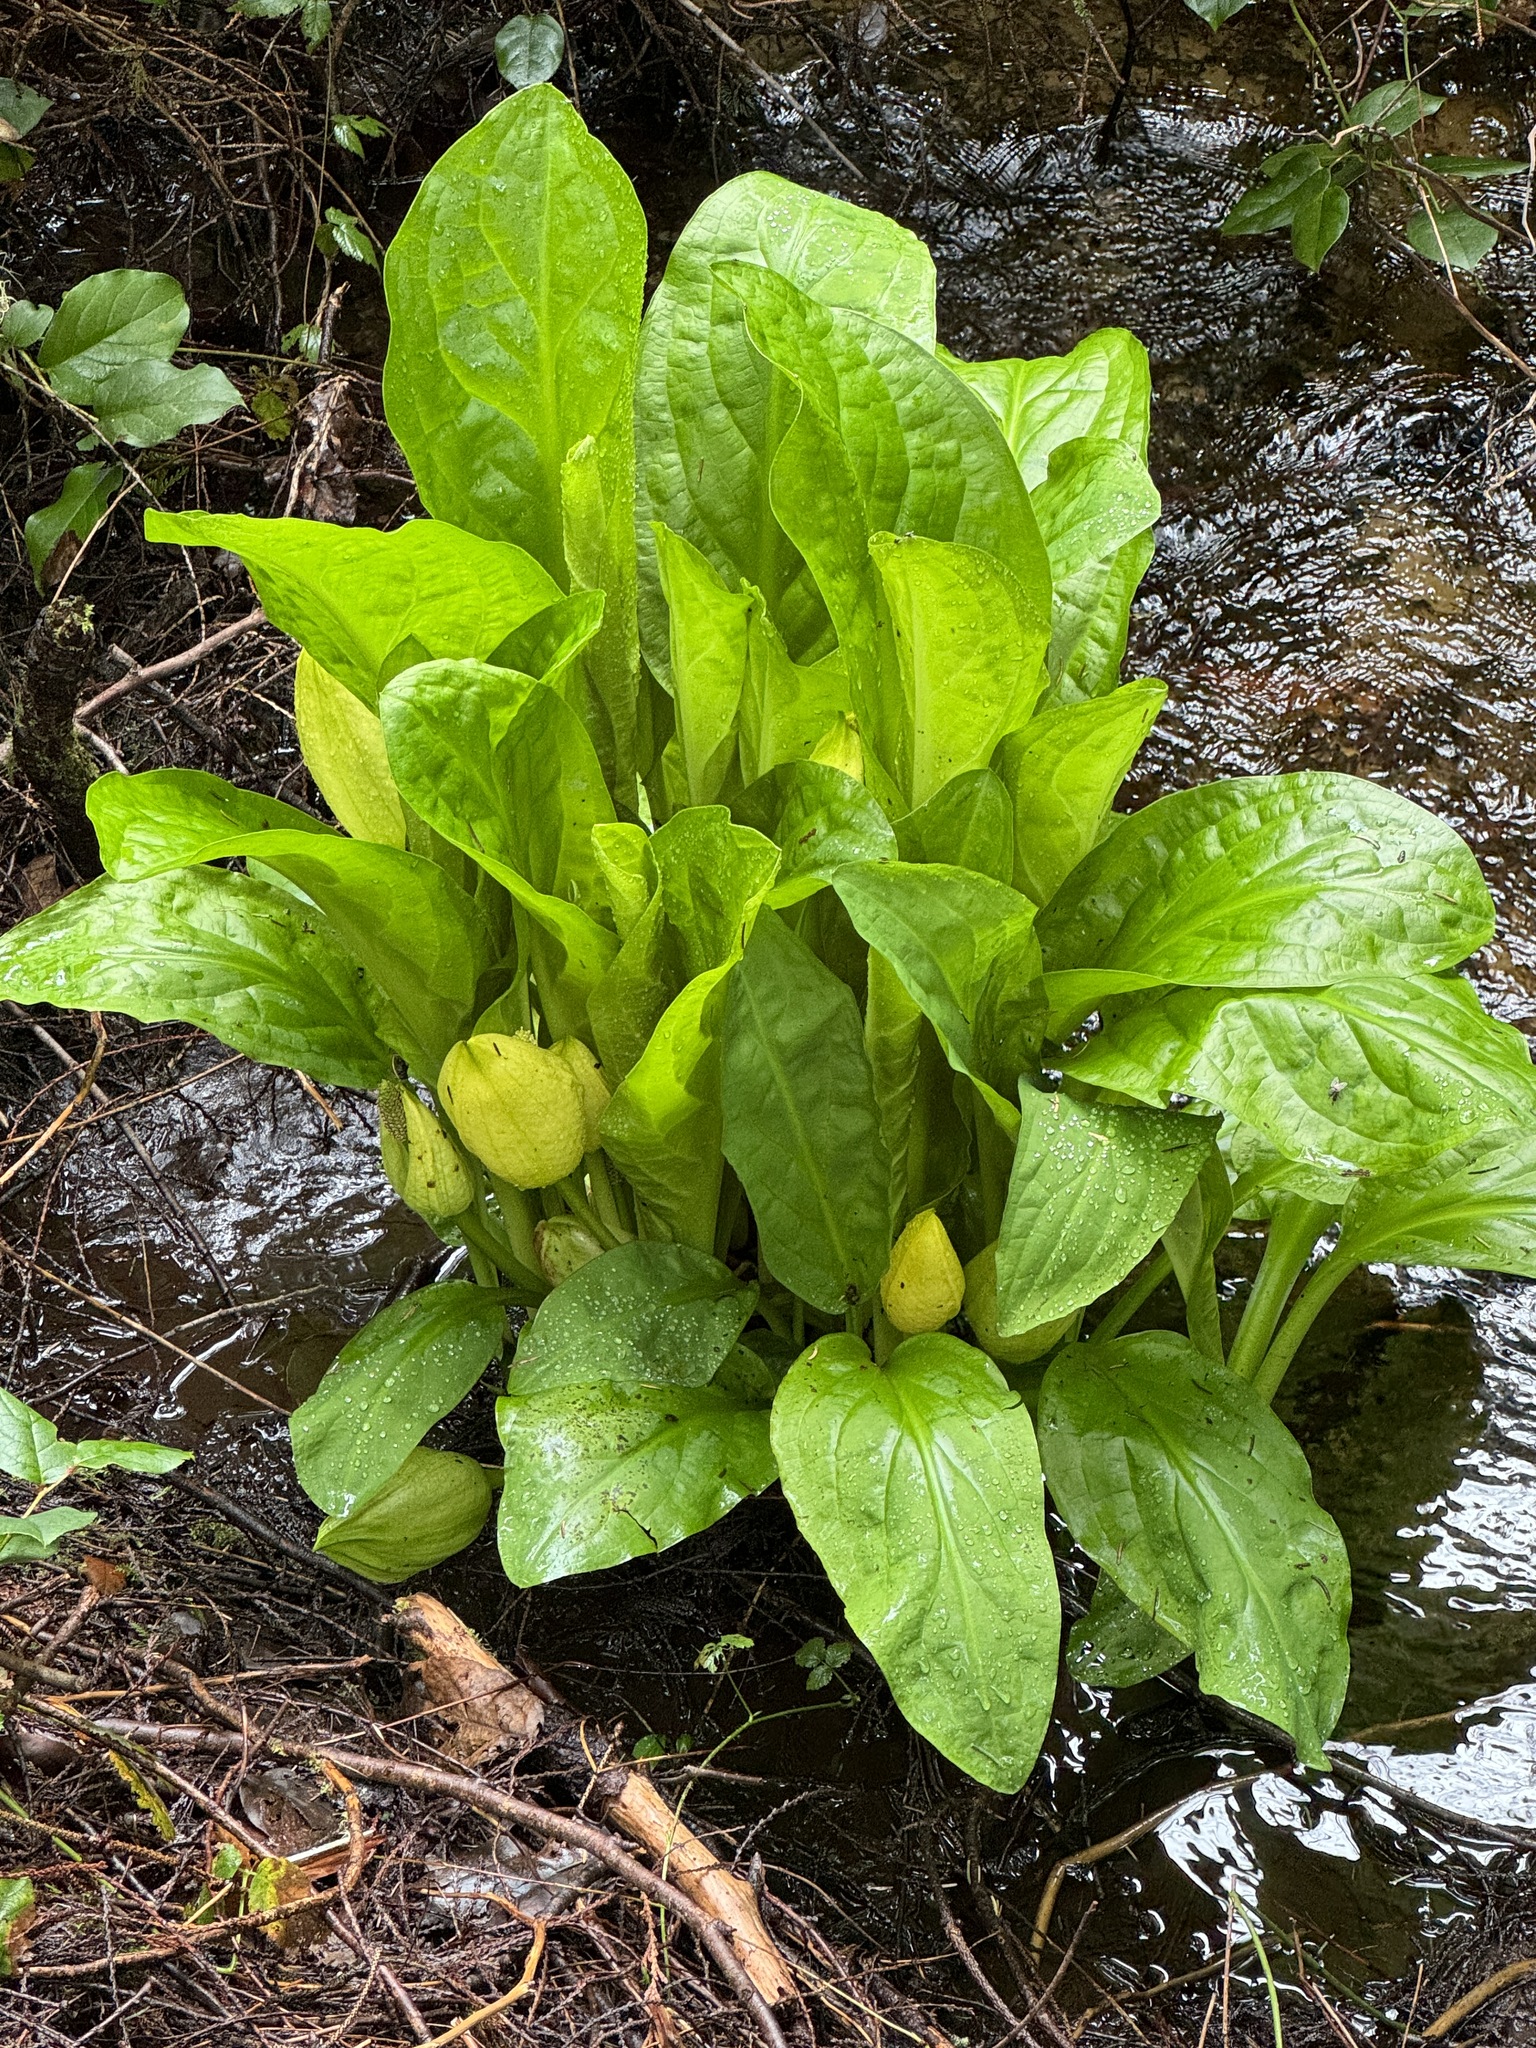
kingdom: Plantae
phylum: Tracheophyta
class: Liliopsida
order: Alismatales
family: Araceae
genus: Lysichiton
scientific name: Lysichiton americanus
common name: American skunk cabbage
